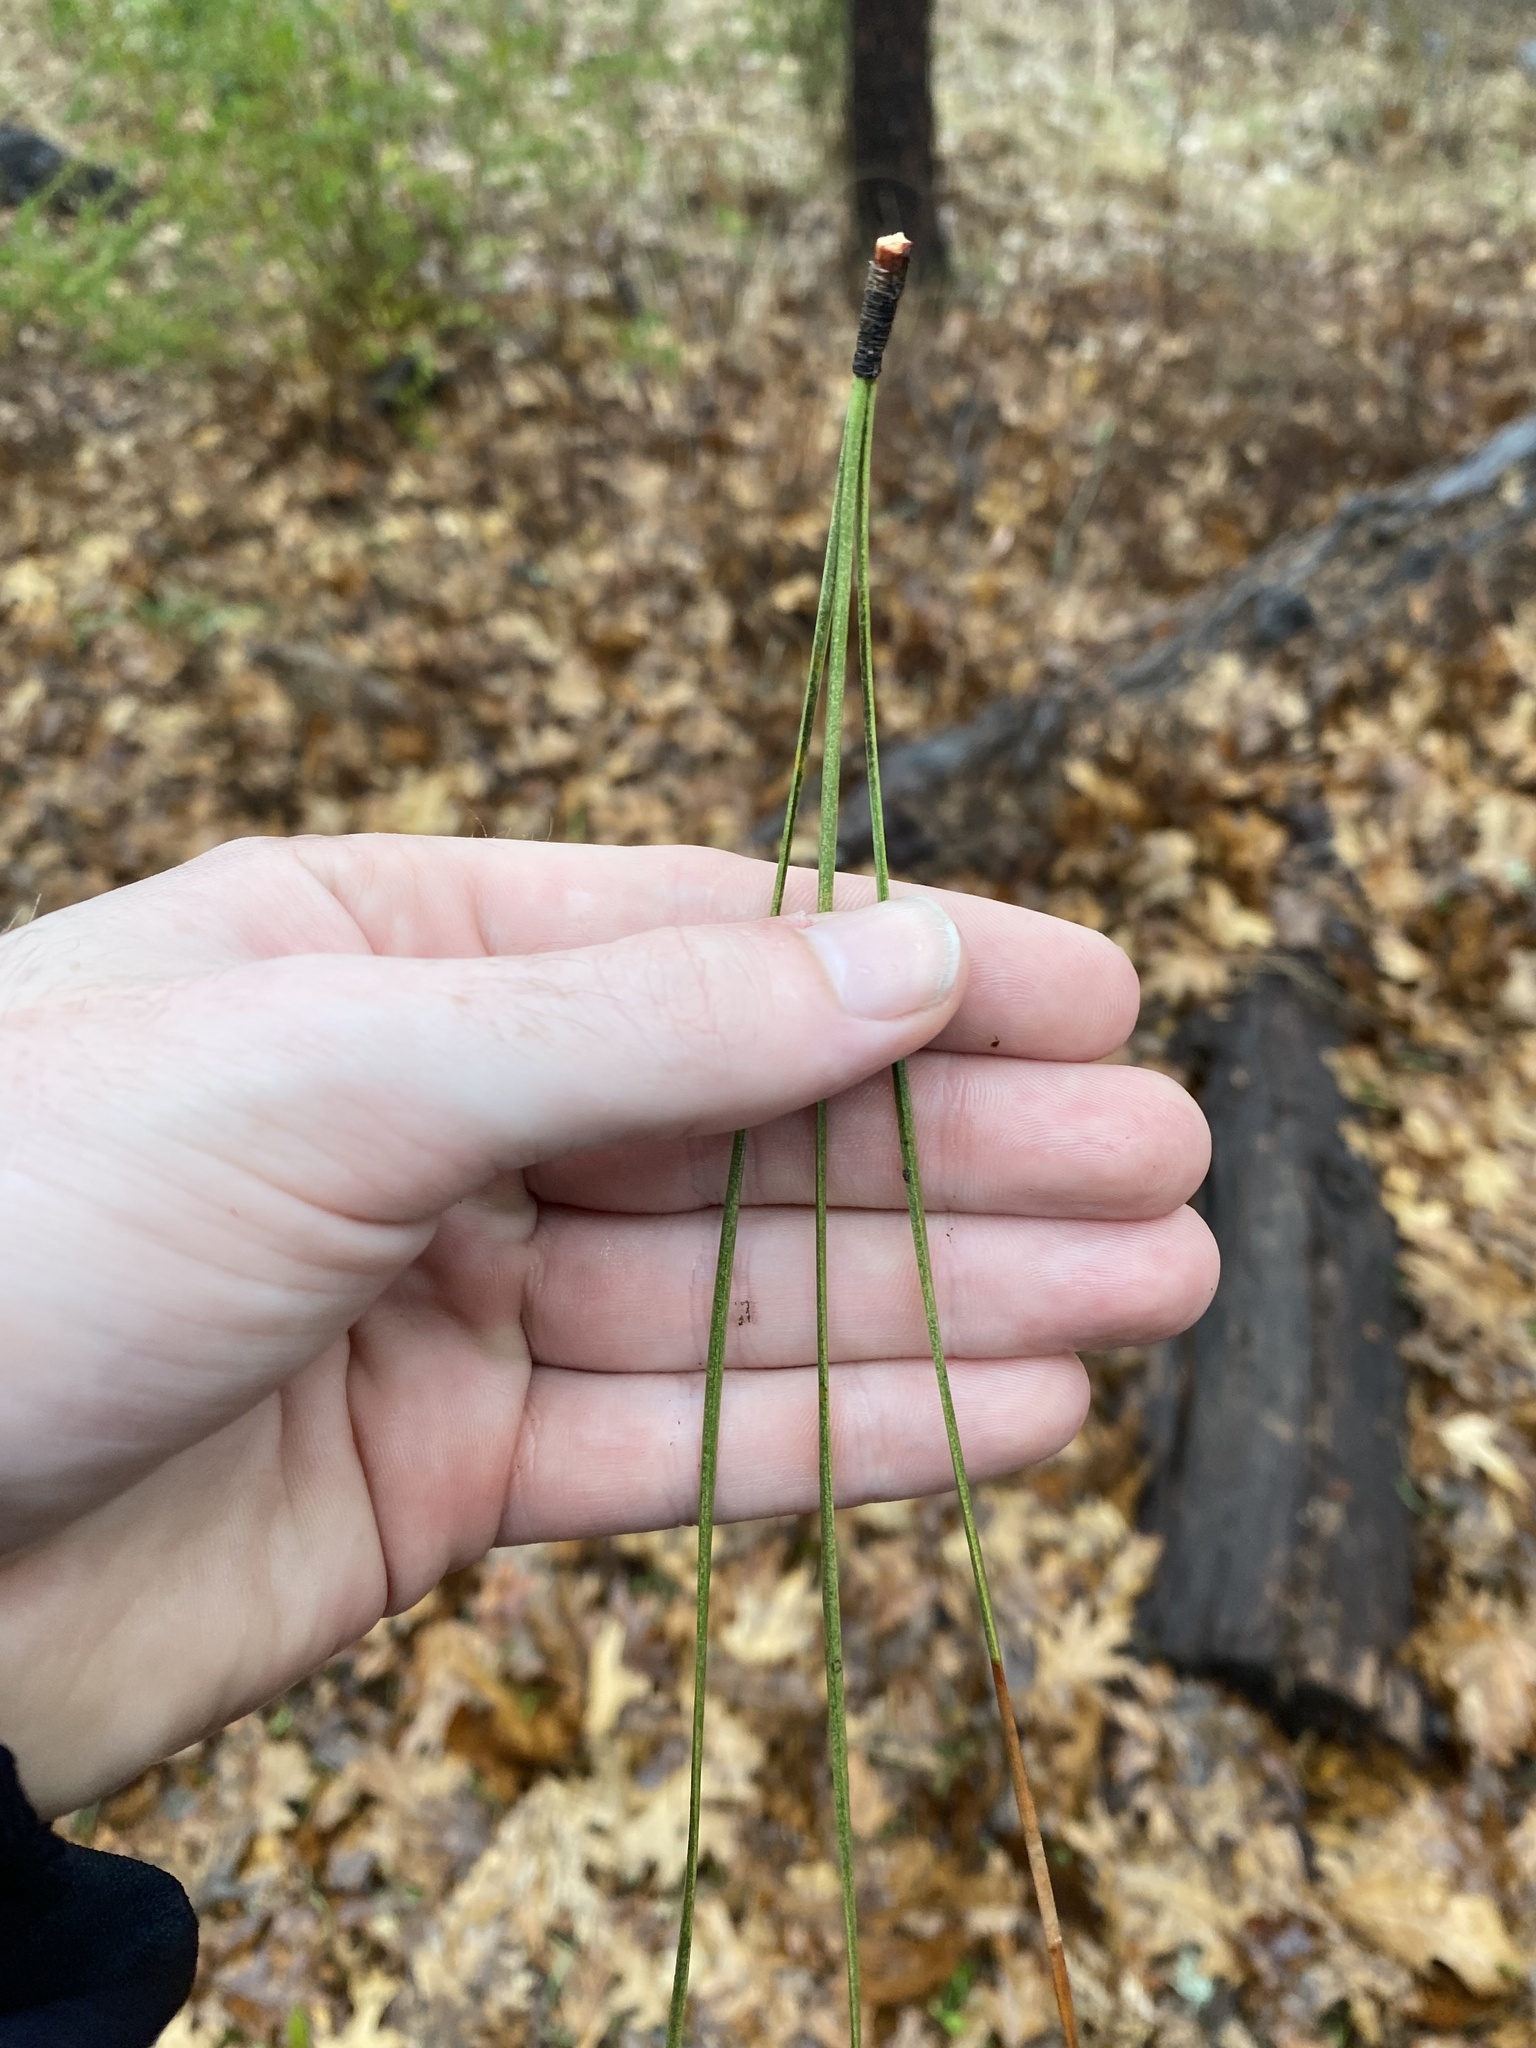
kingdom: Plantae
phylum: Tracheophyta
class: Pinopsida
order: Pinales
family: Pinaceae
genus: Pinus
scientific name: Pinus coulteri
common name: Coulter pine
